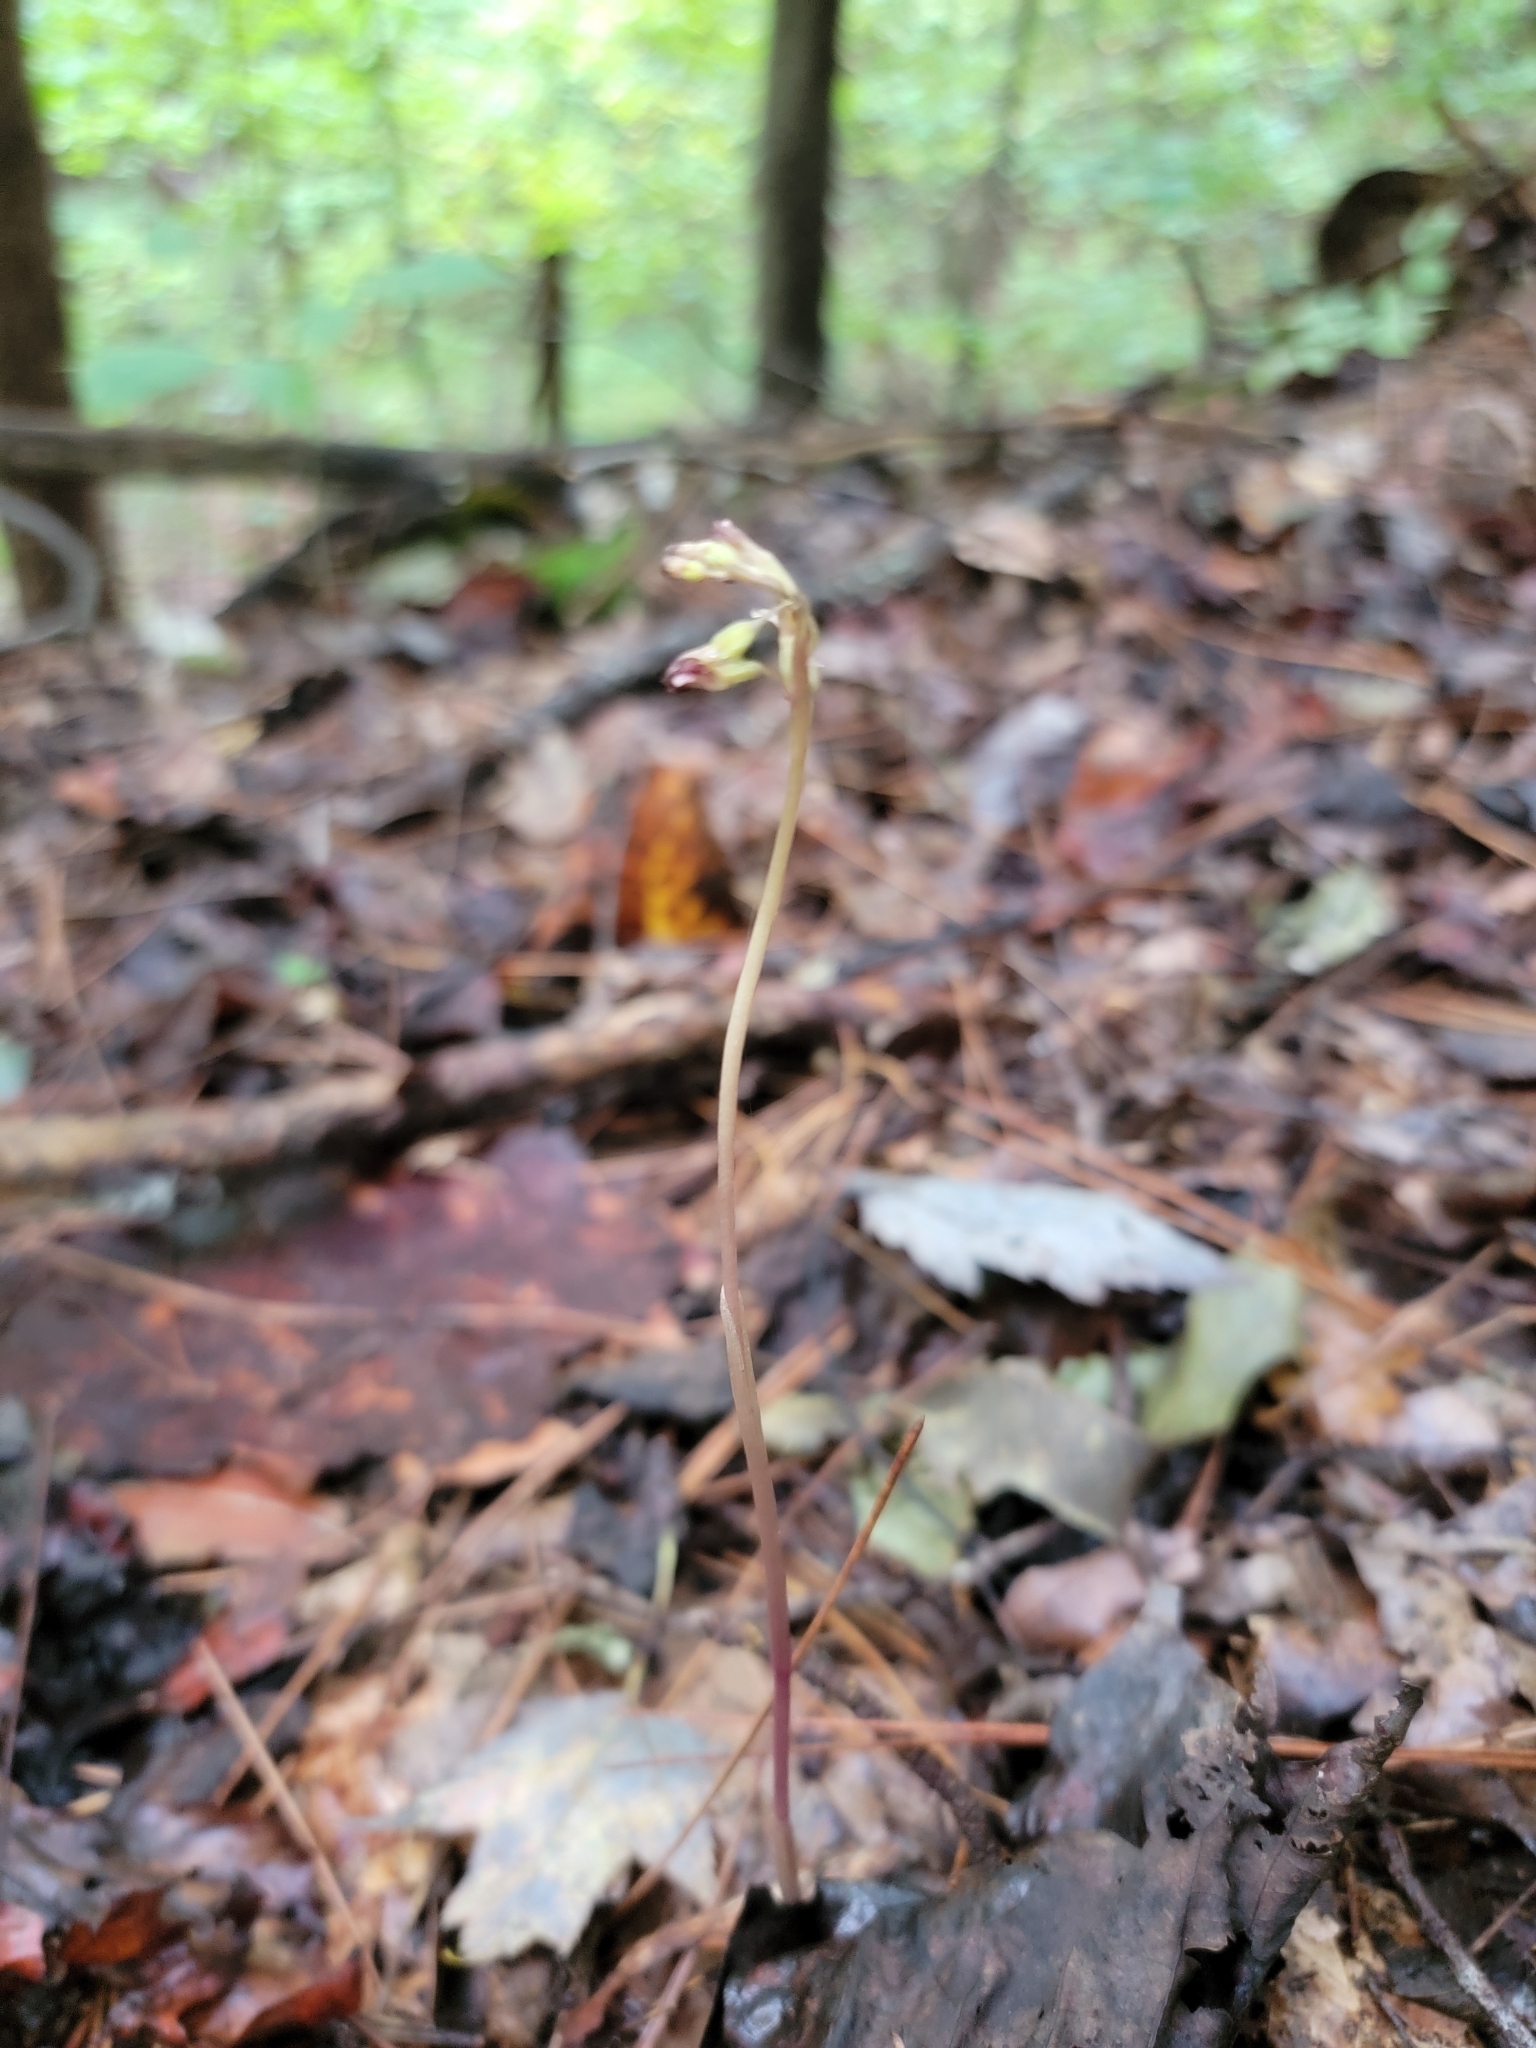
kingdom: Plantae
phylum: Tracheophyta
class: Liliopsida
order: Asparagales
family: Orchidaceae
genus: Corallorhiza
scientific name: Corallorhiza odontorhiza
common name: Autumn coralroot
